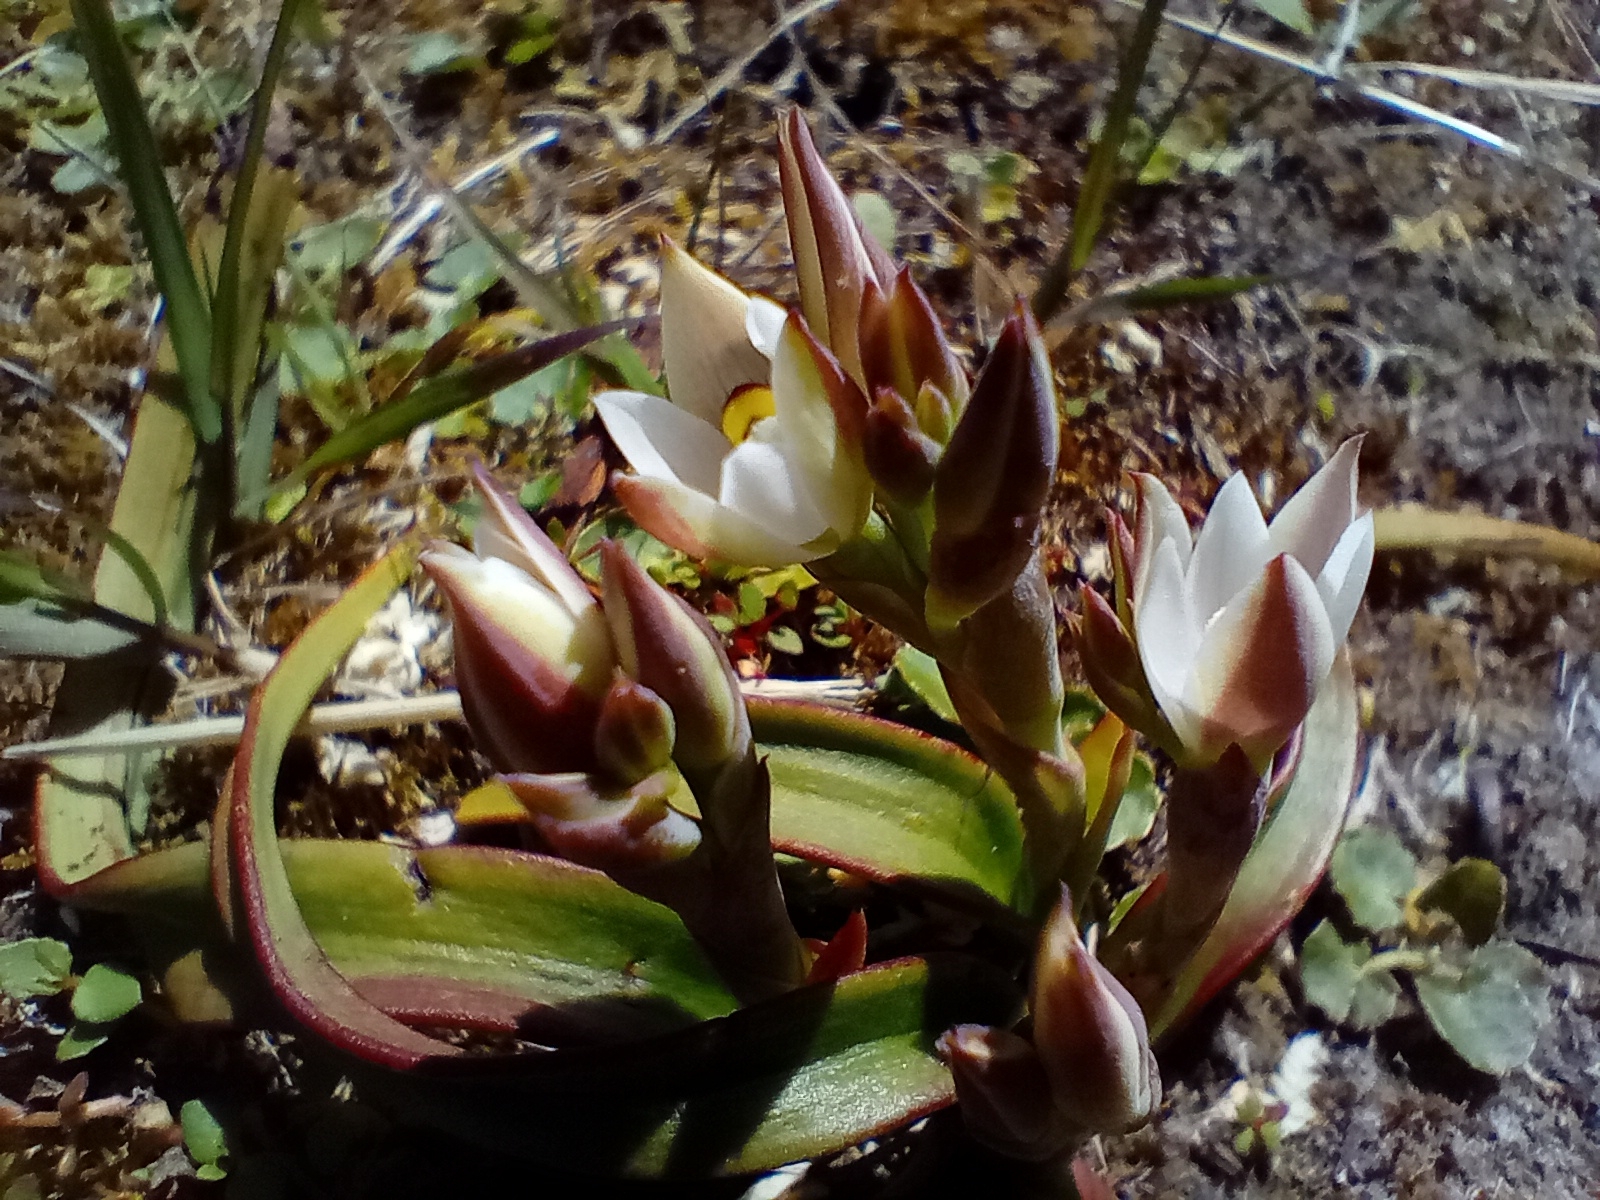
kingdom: Plantae
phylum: Tracheophyta
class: Liliopsida
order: Asparagales
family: Orchidaceae
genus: Thelymitra
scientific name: Thelymitra longifolia
